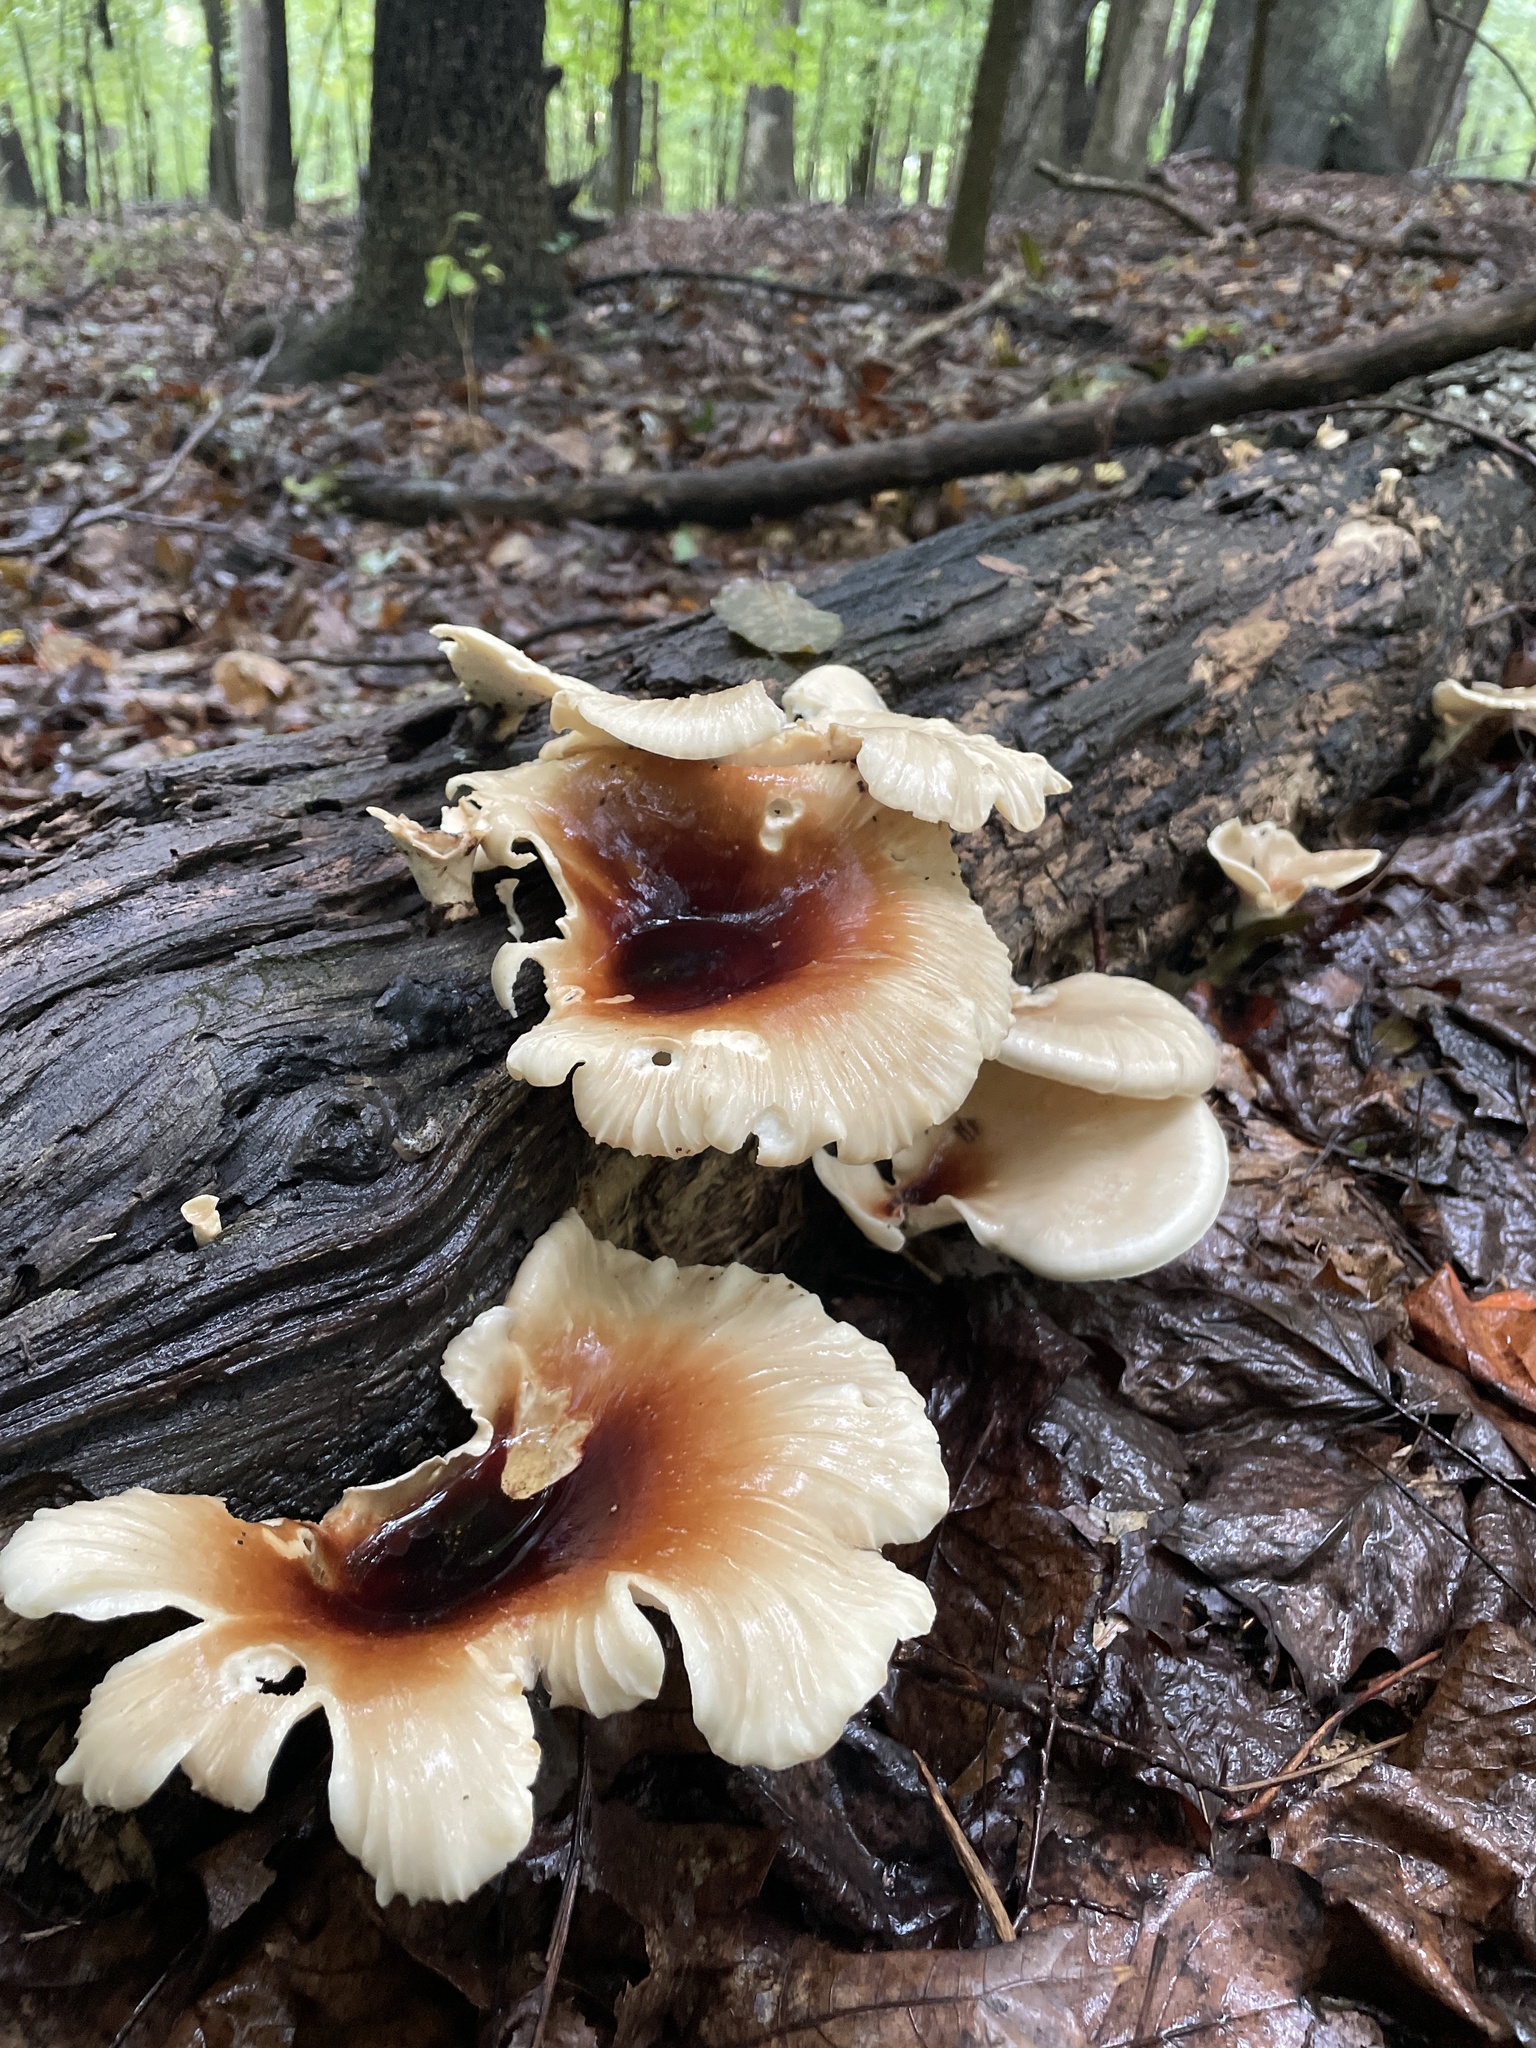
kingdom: Fungi
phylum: Basidiomycota
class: Agaricomycetes
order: Polyporales
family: Polyporaceae
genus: Picipes
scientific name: Picipes badius
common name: Bay polypore
